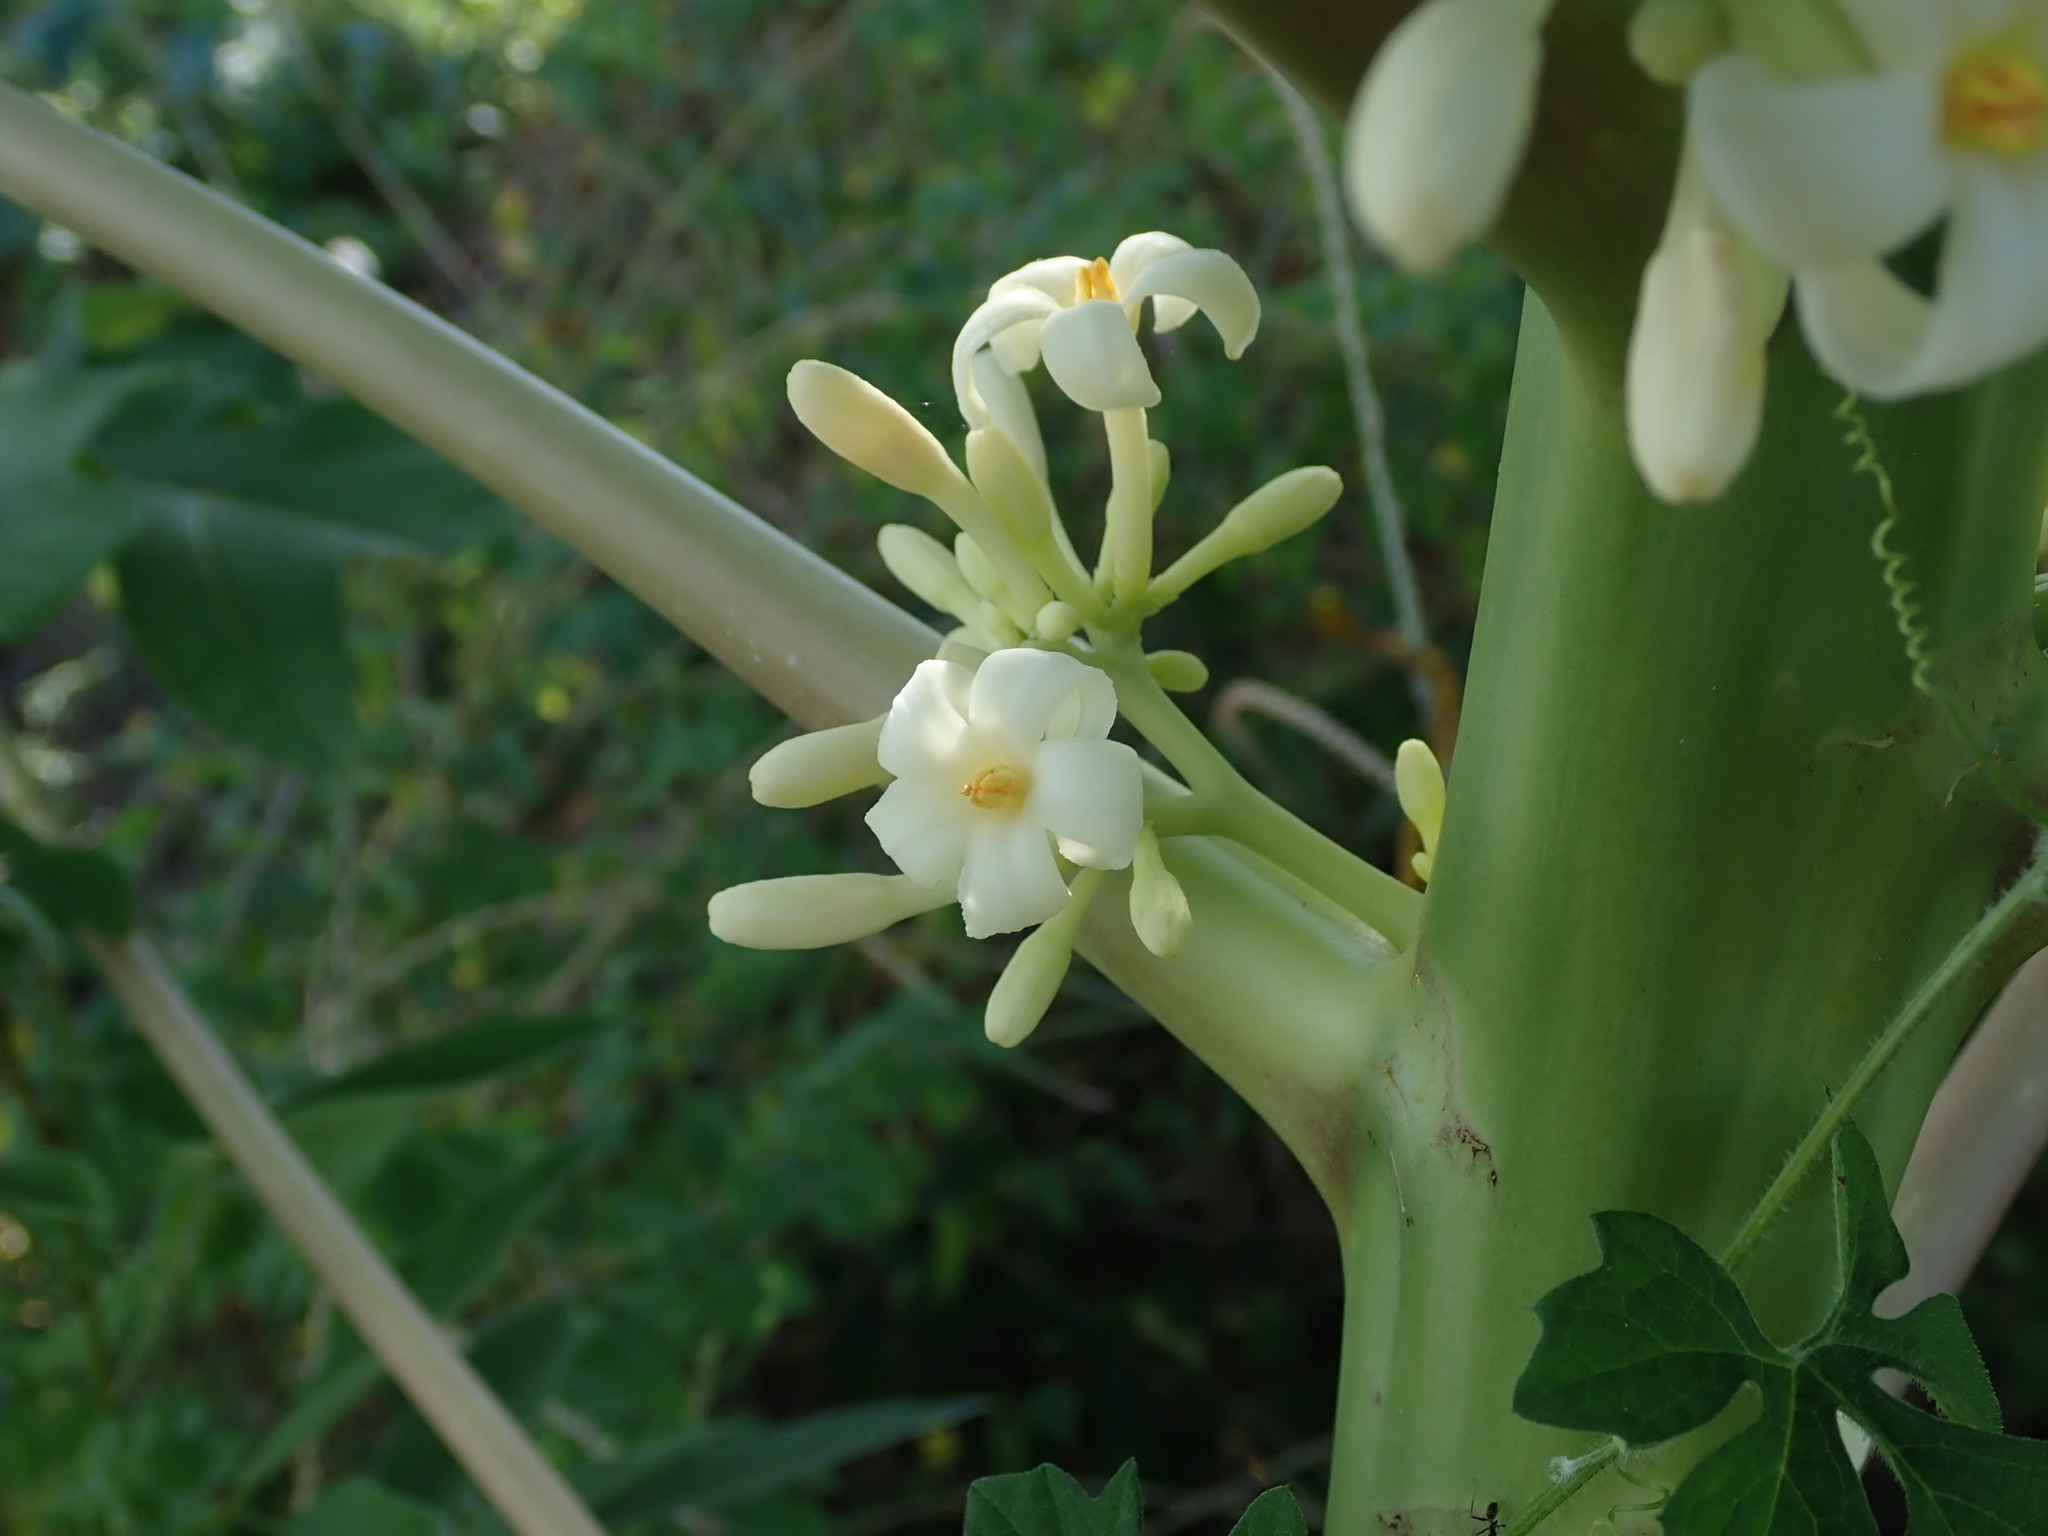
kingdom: Plantae
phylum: Tracheophyta
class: Magnoliopsida
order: Brassicales
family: Caricaceae
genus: Carica
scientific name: Carica papaya
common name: Papaya
